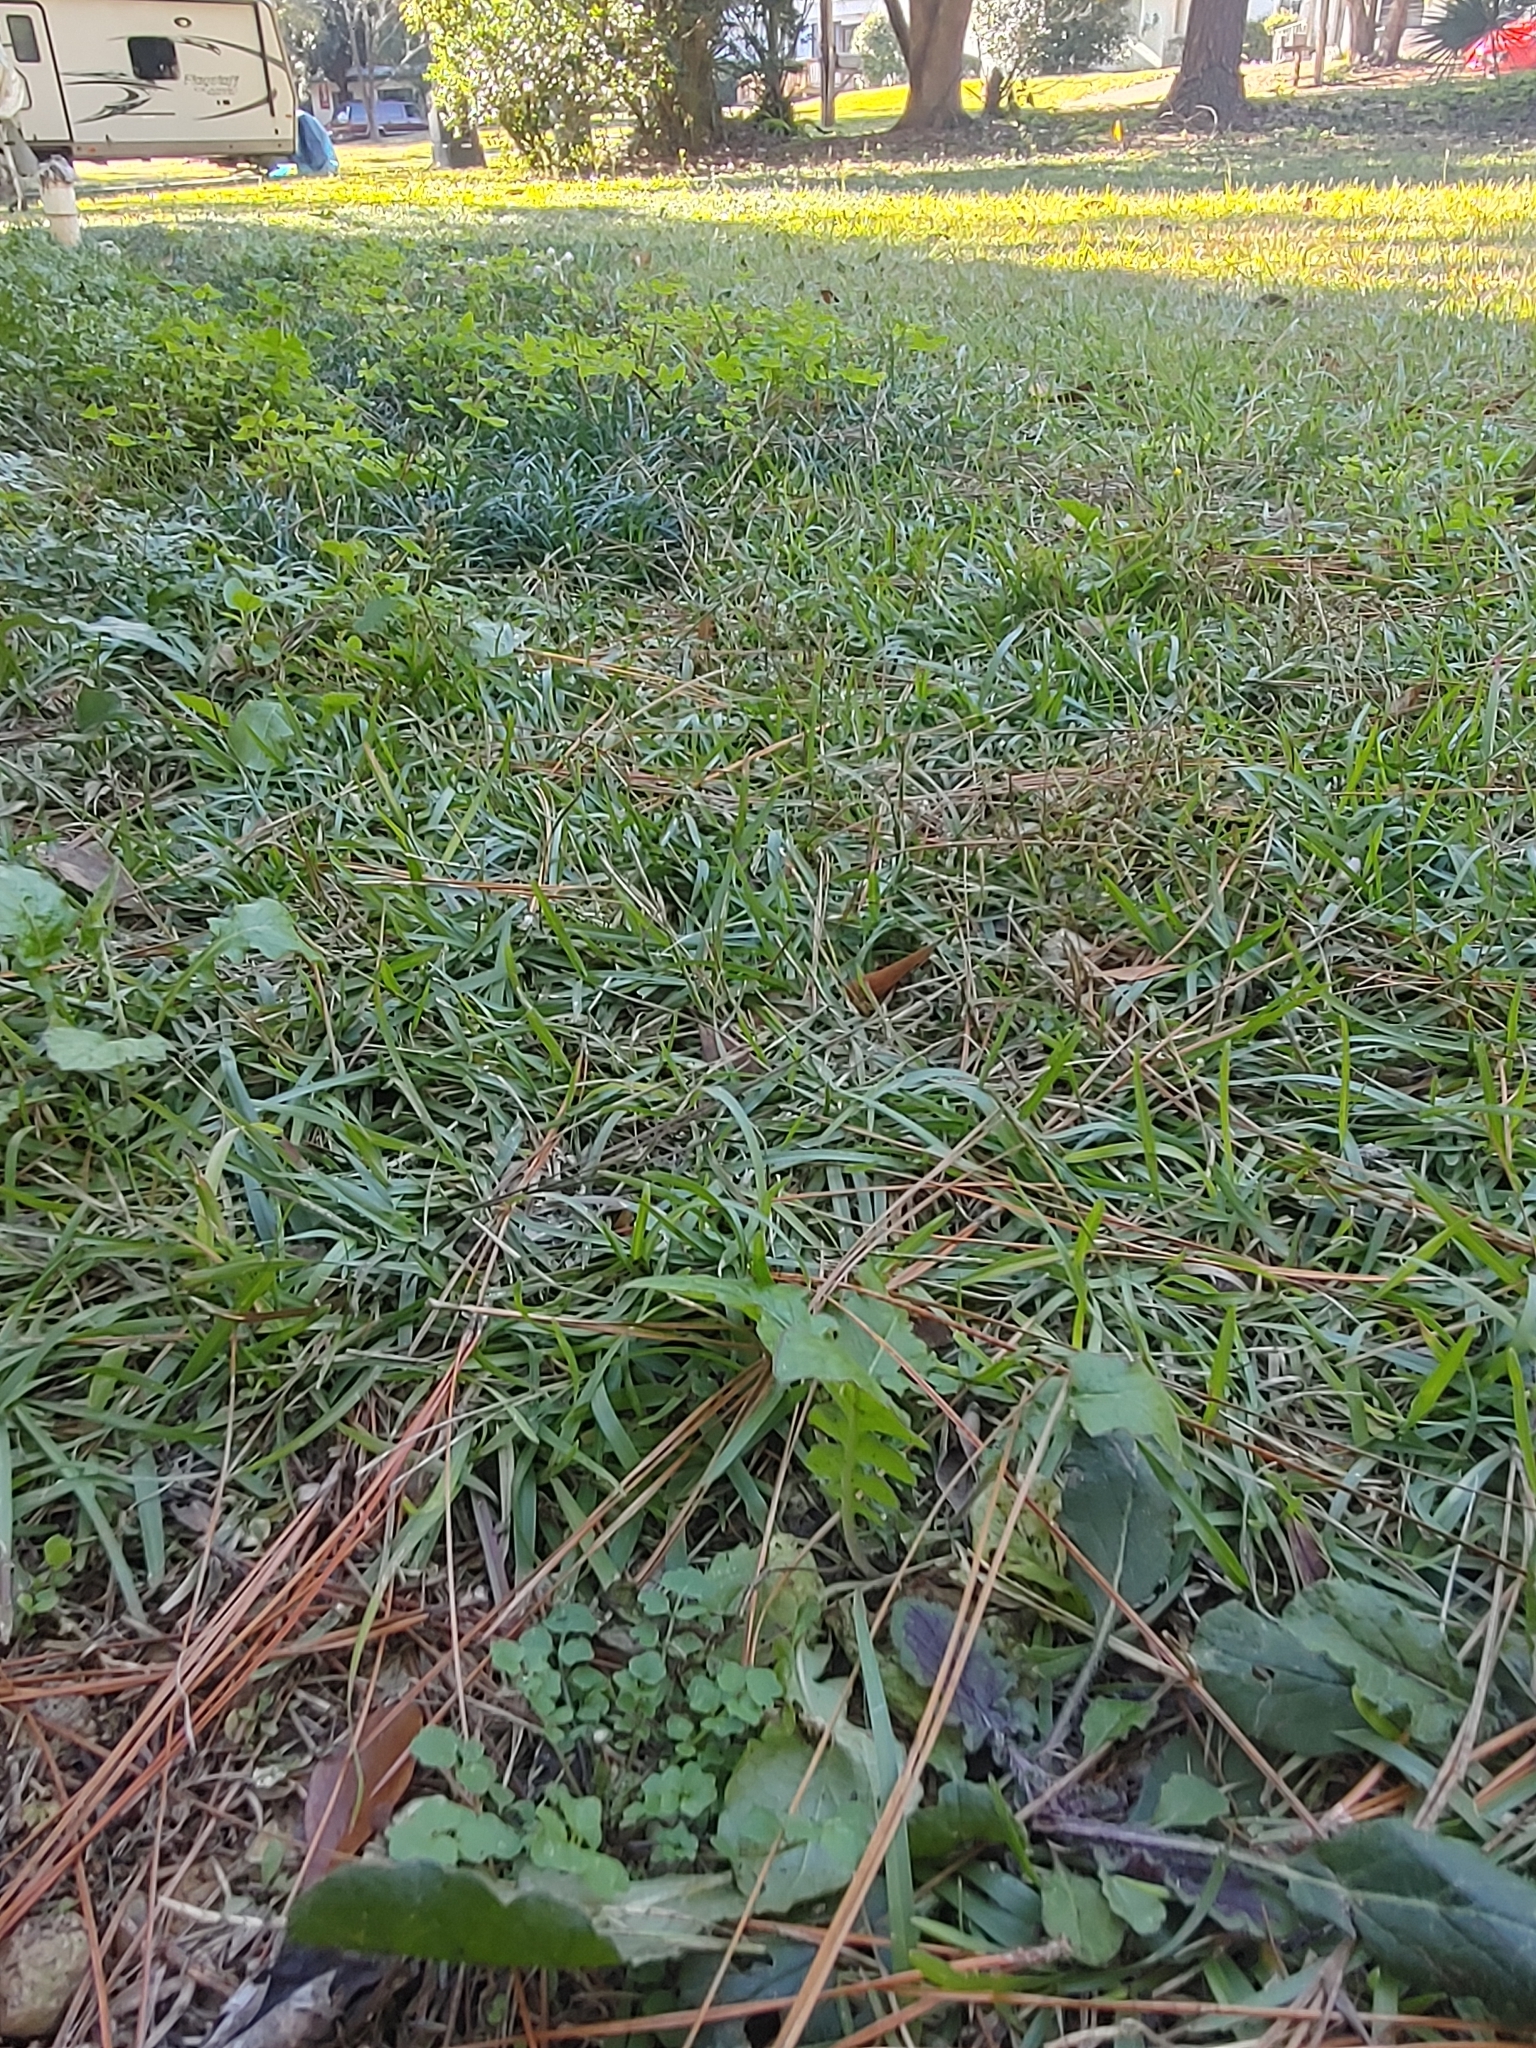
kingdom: Plantae
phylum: Tracheophyta
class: Magnoliopsida
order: Brassicales
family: Brassicaceae
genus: Cardamine
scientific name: Cardamine hirsuta
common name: Hairy bittercress
